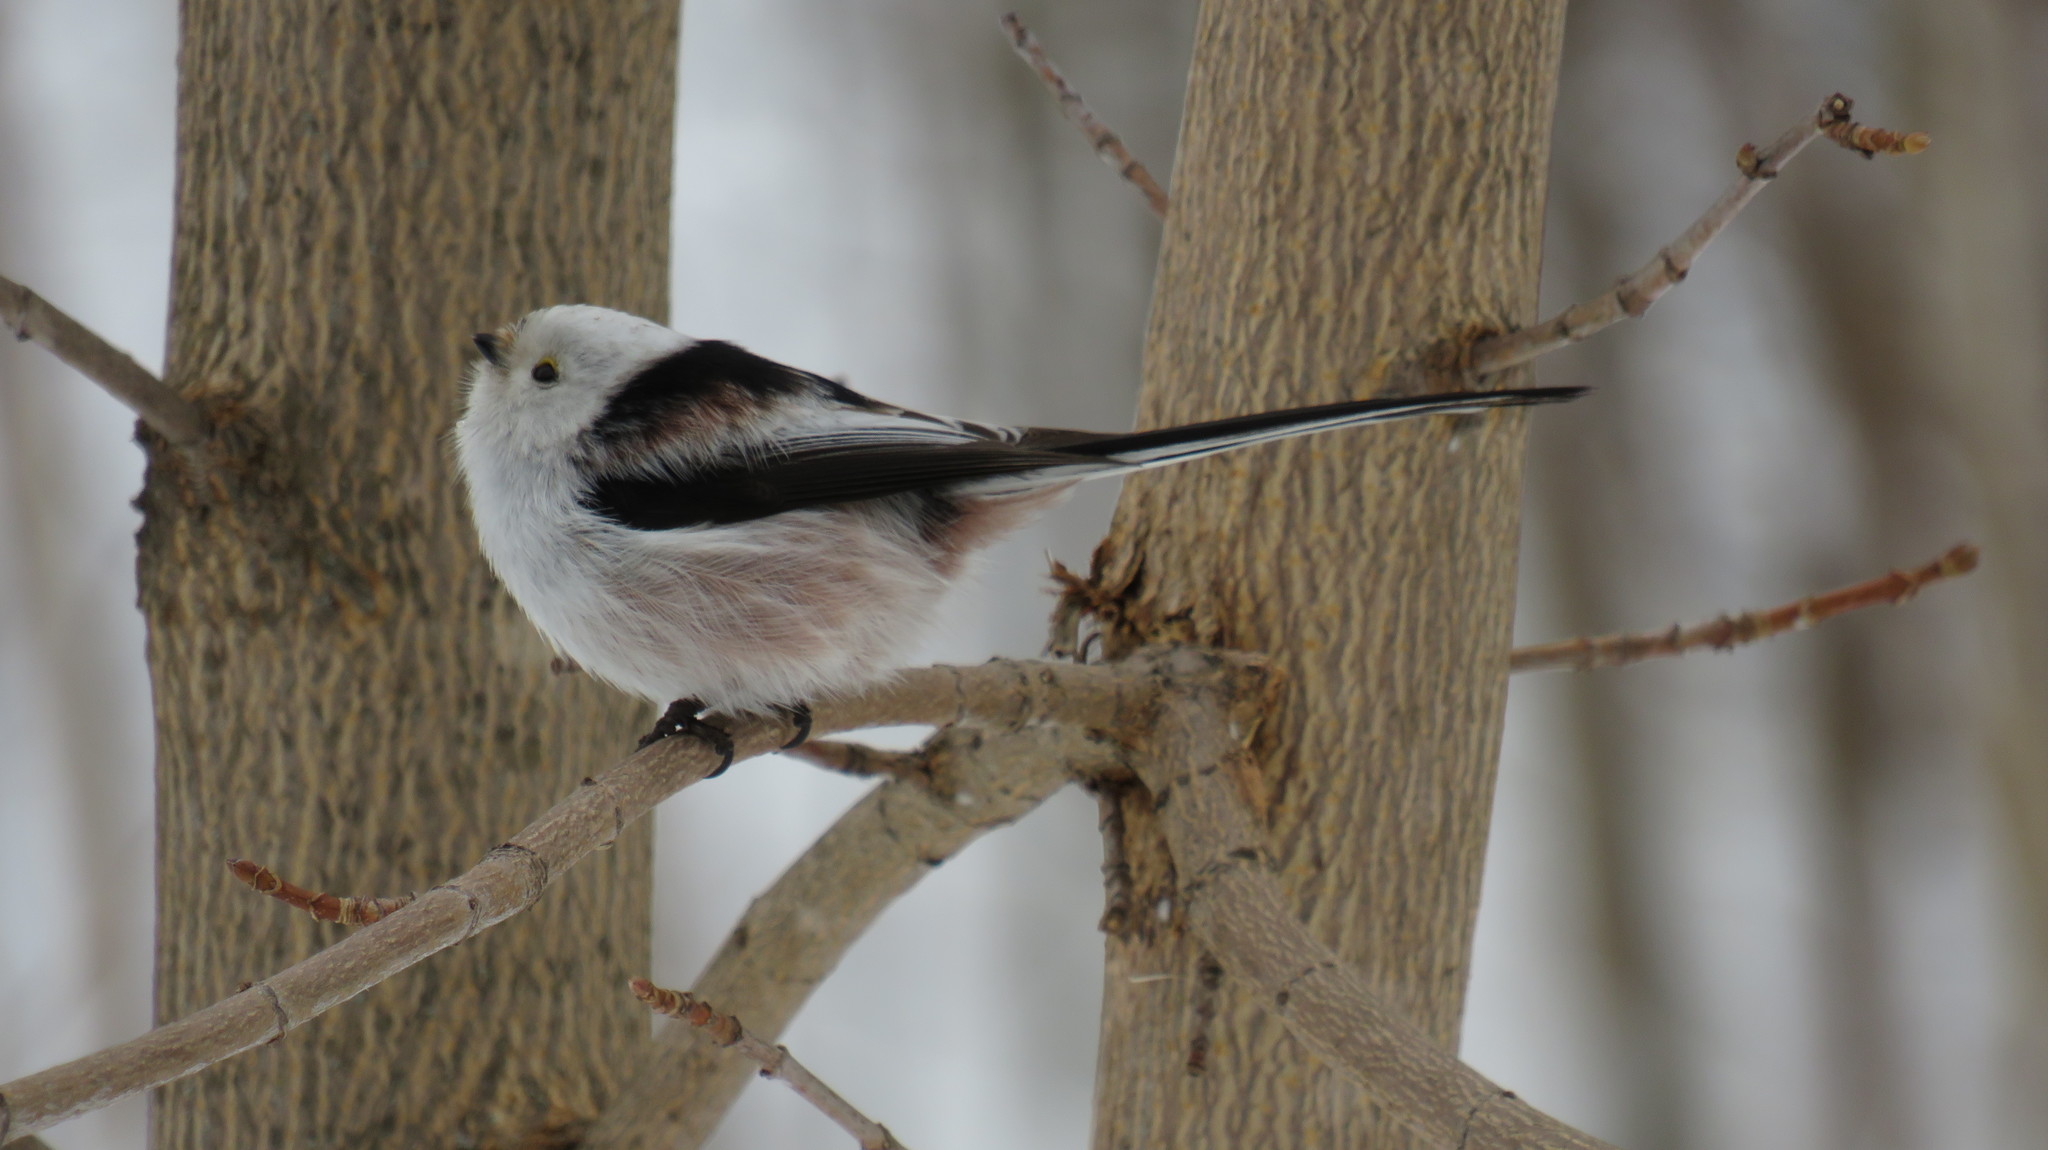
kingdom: Animalia
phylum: Chordata
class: Aves
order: Passeriformes
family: Aegithalidae
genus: Aegithalos
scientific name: Aegithalos caudatus
